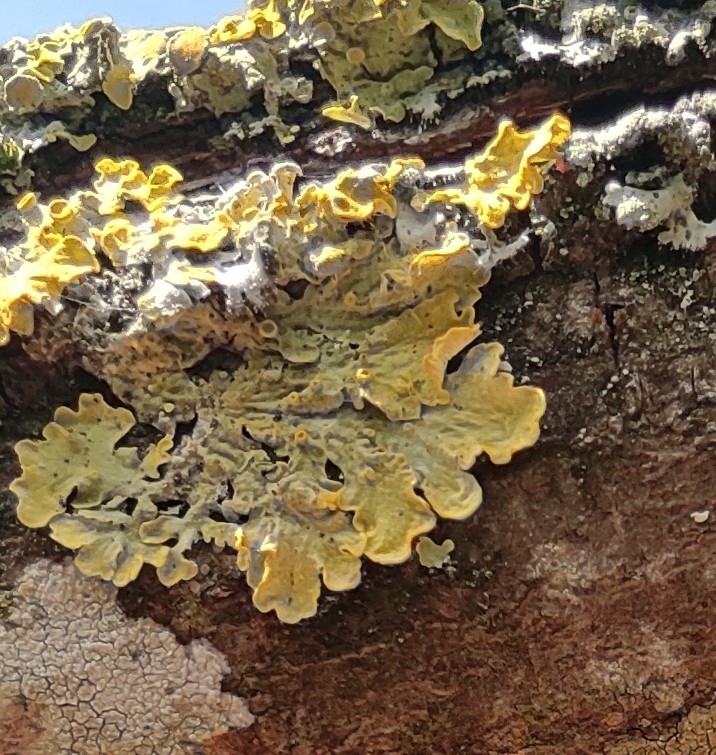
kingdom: Fungi
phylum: Ascomycota
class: Lecanoromycetes
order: Teloschistales
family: Teloschistaceae
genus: Xanthoria
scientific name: Xanthoria parietina
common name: Common orange lichen
